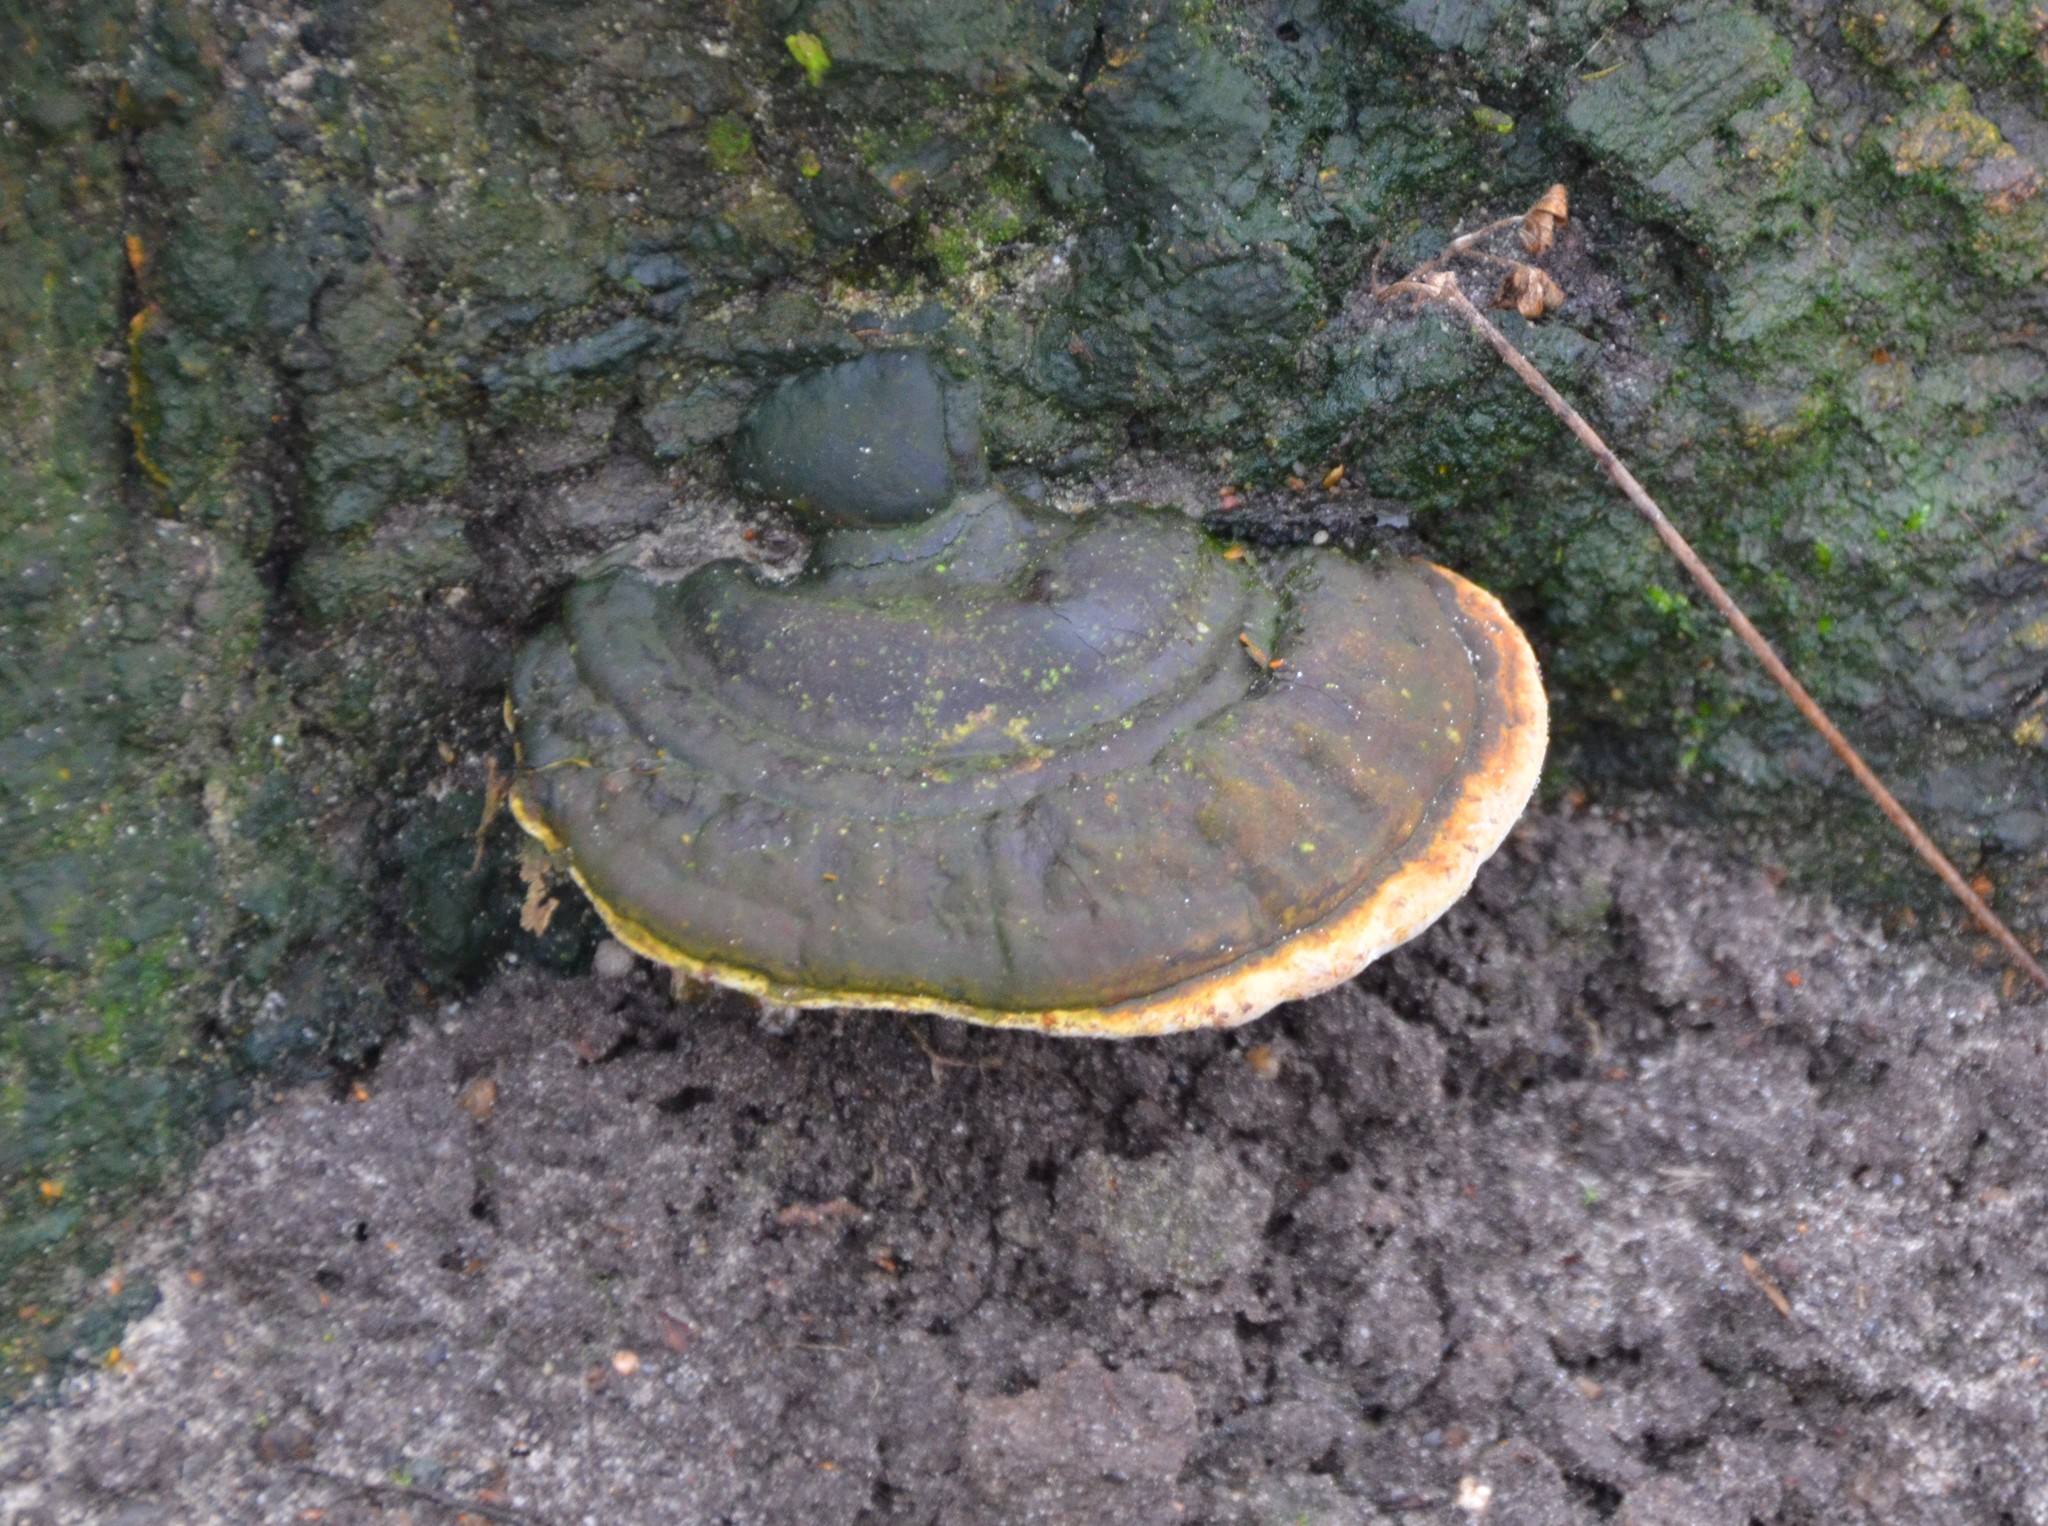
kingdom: Fungi
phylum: Basidiomycota
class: Agaricomycetes
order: Polyporales
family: Fomitopsidaceae
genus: Fomitopsis
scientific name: Fomitopsis pinicola
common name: Red-belted bracket
